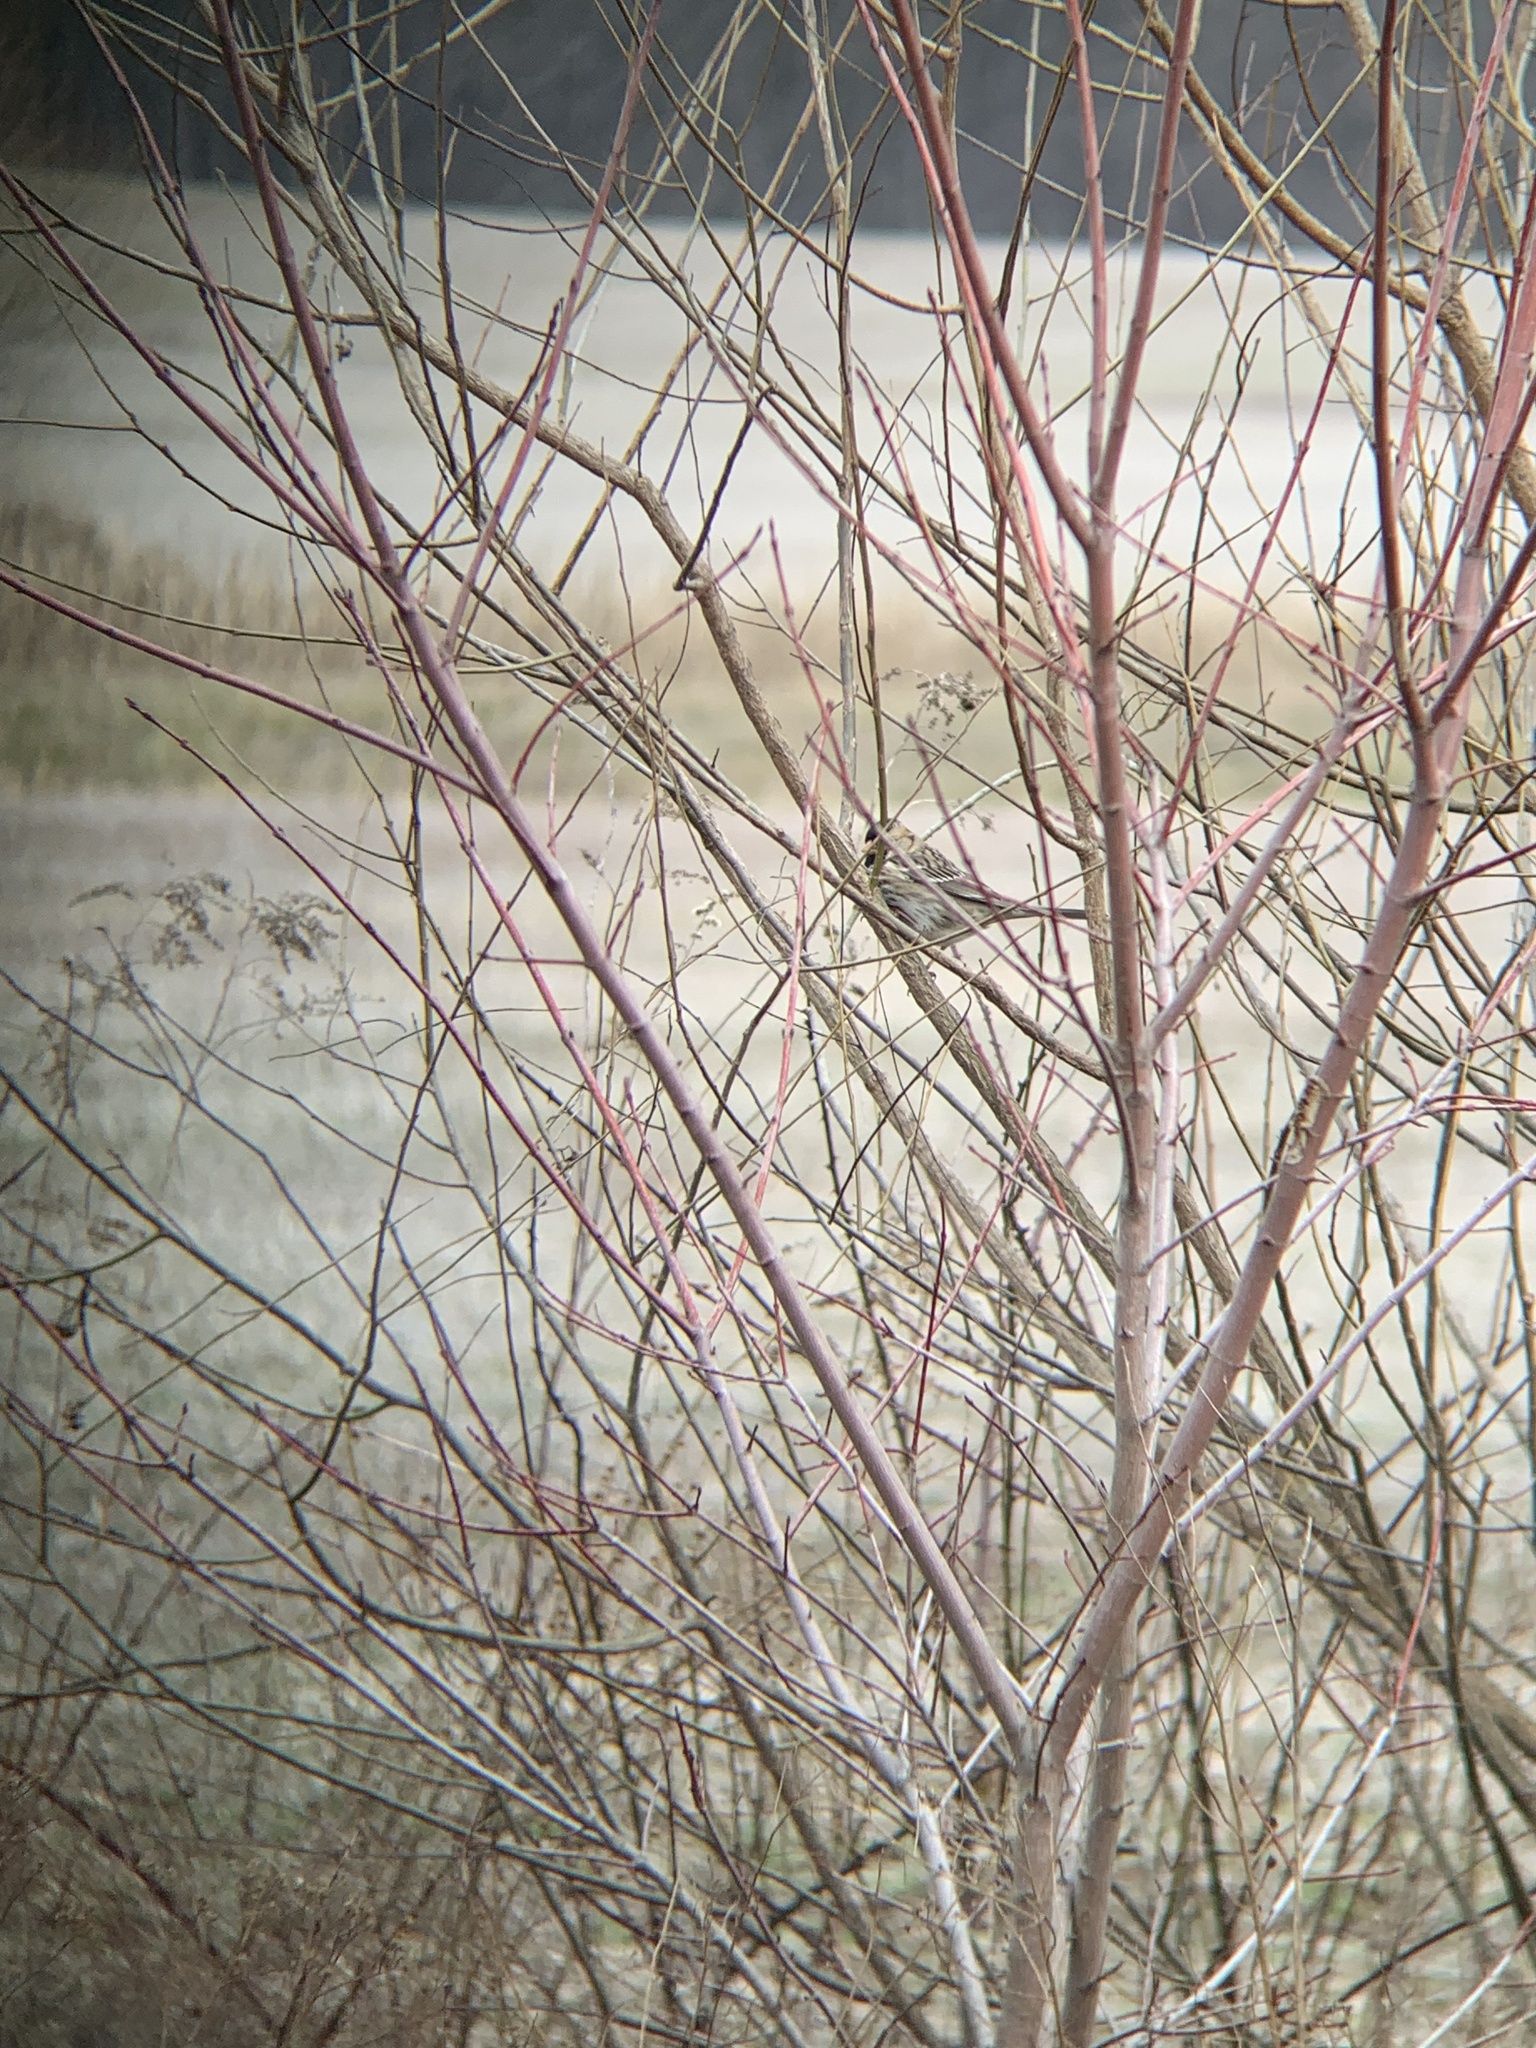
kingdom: Animalia
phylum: Chordata
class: Aves
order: Passeriformes
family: Passerellidae
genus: Zonotrichia
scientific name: Zonotrichia querula
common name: Harris's sparrow
